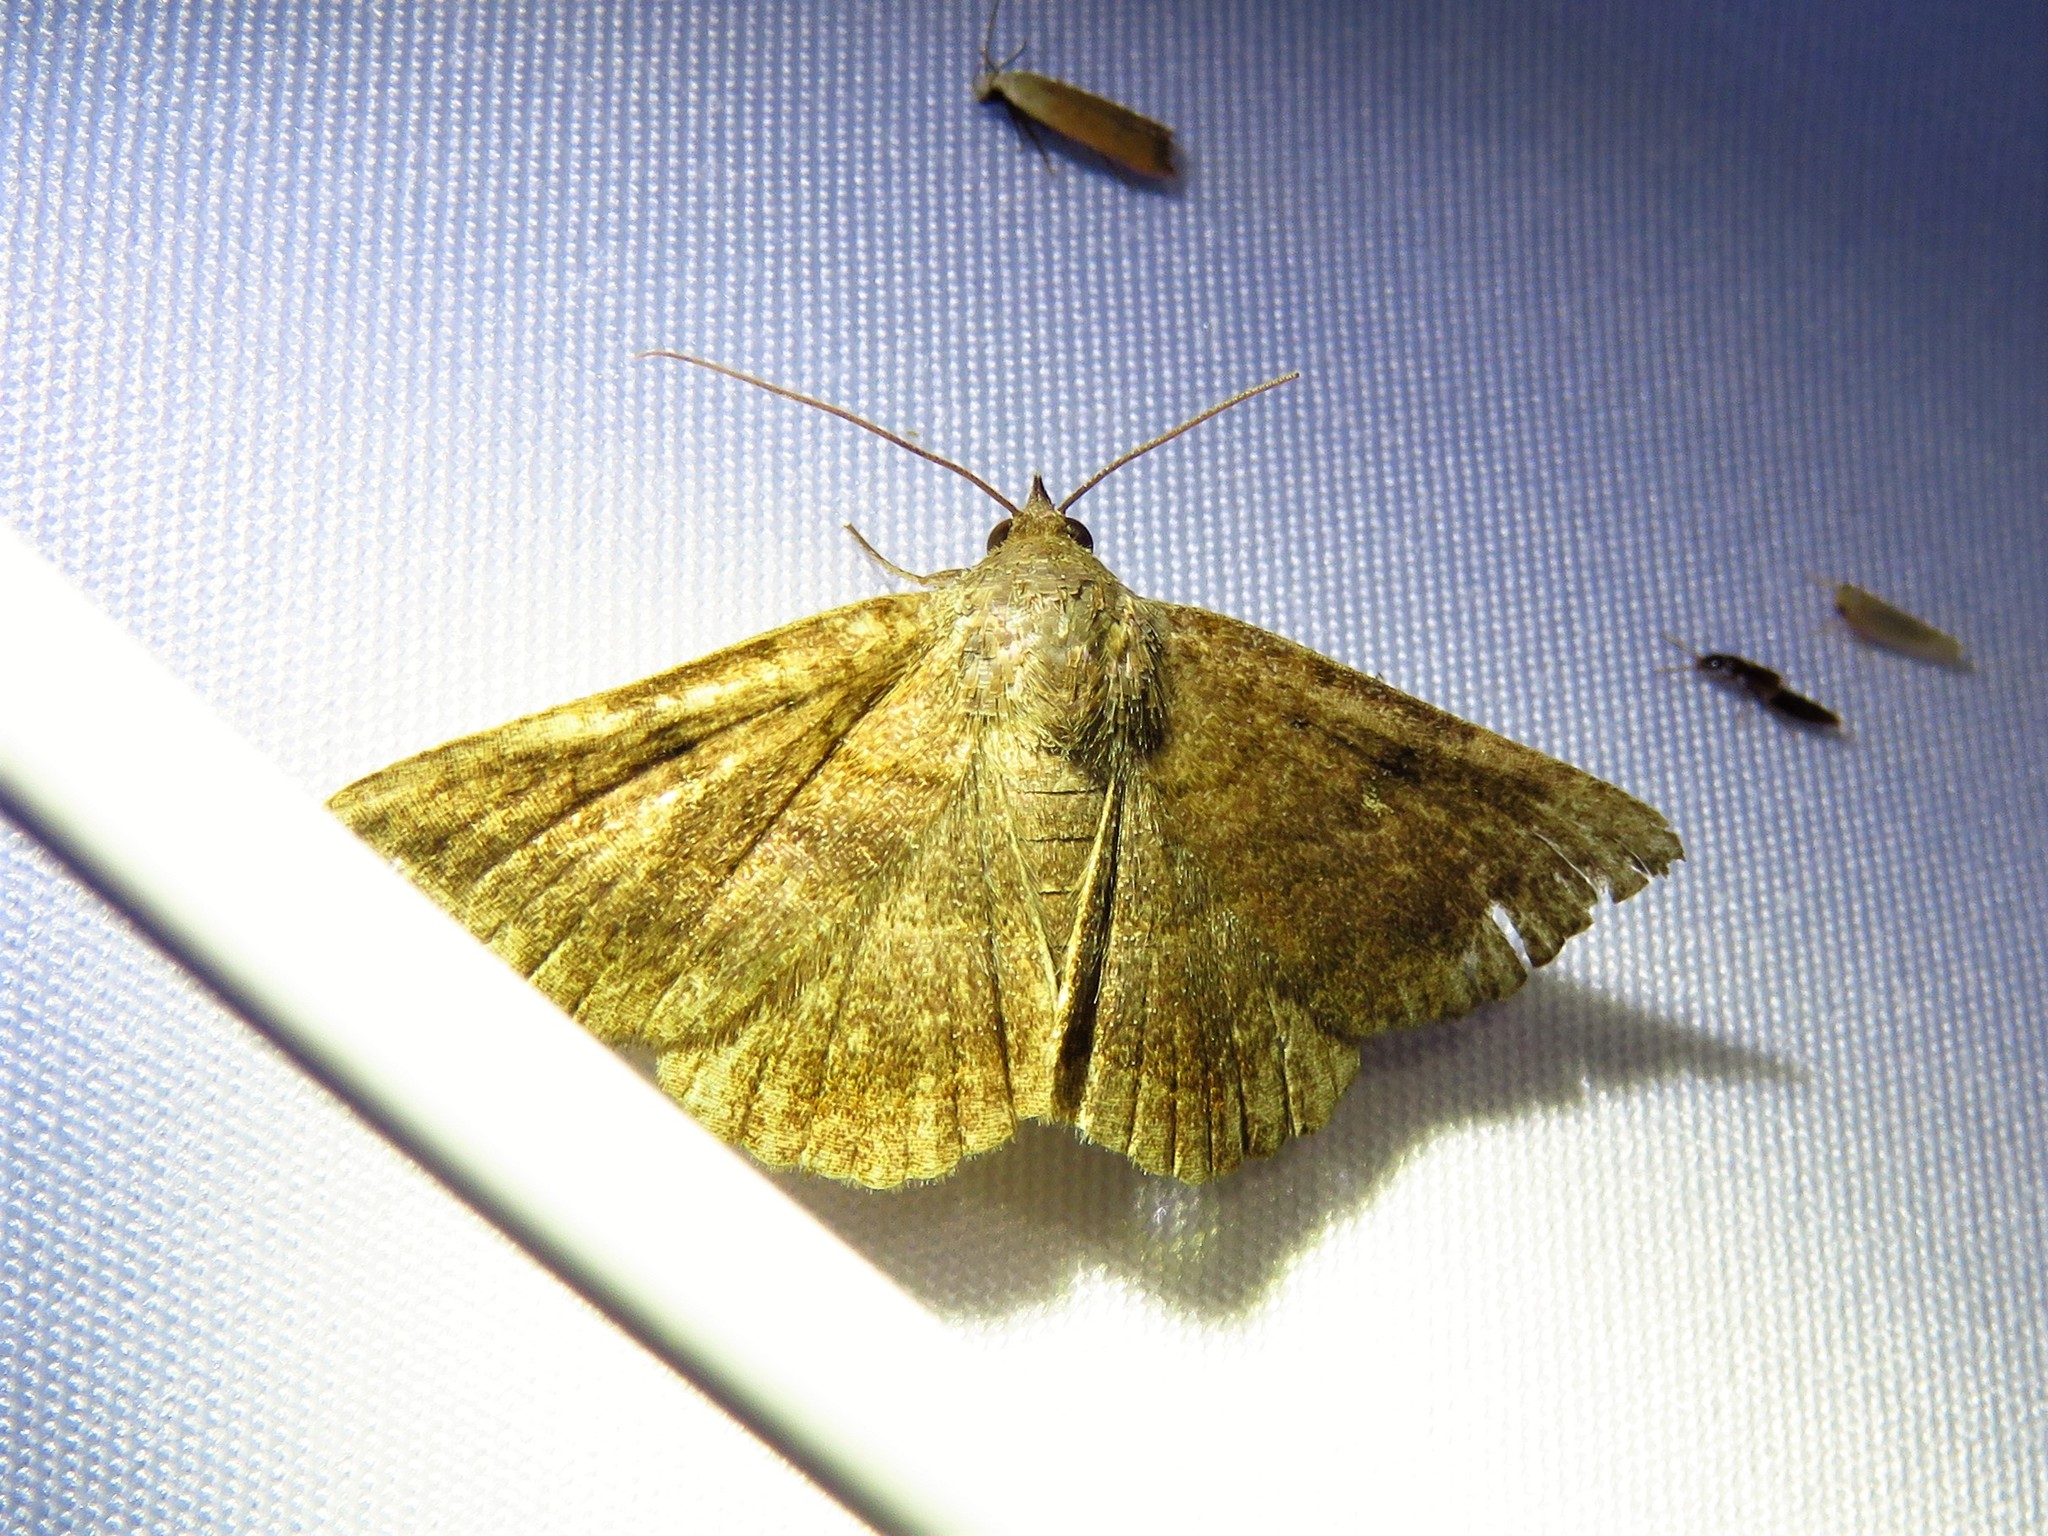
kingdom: Animalia
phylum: Arthropoda
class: Insecta
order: Lepidoptera
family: Erebidae
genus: Lesmone
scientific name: Lesmone detrahens
